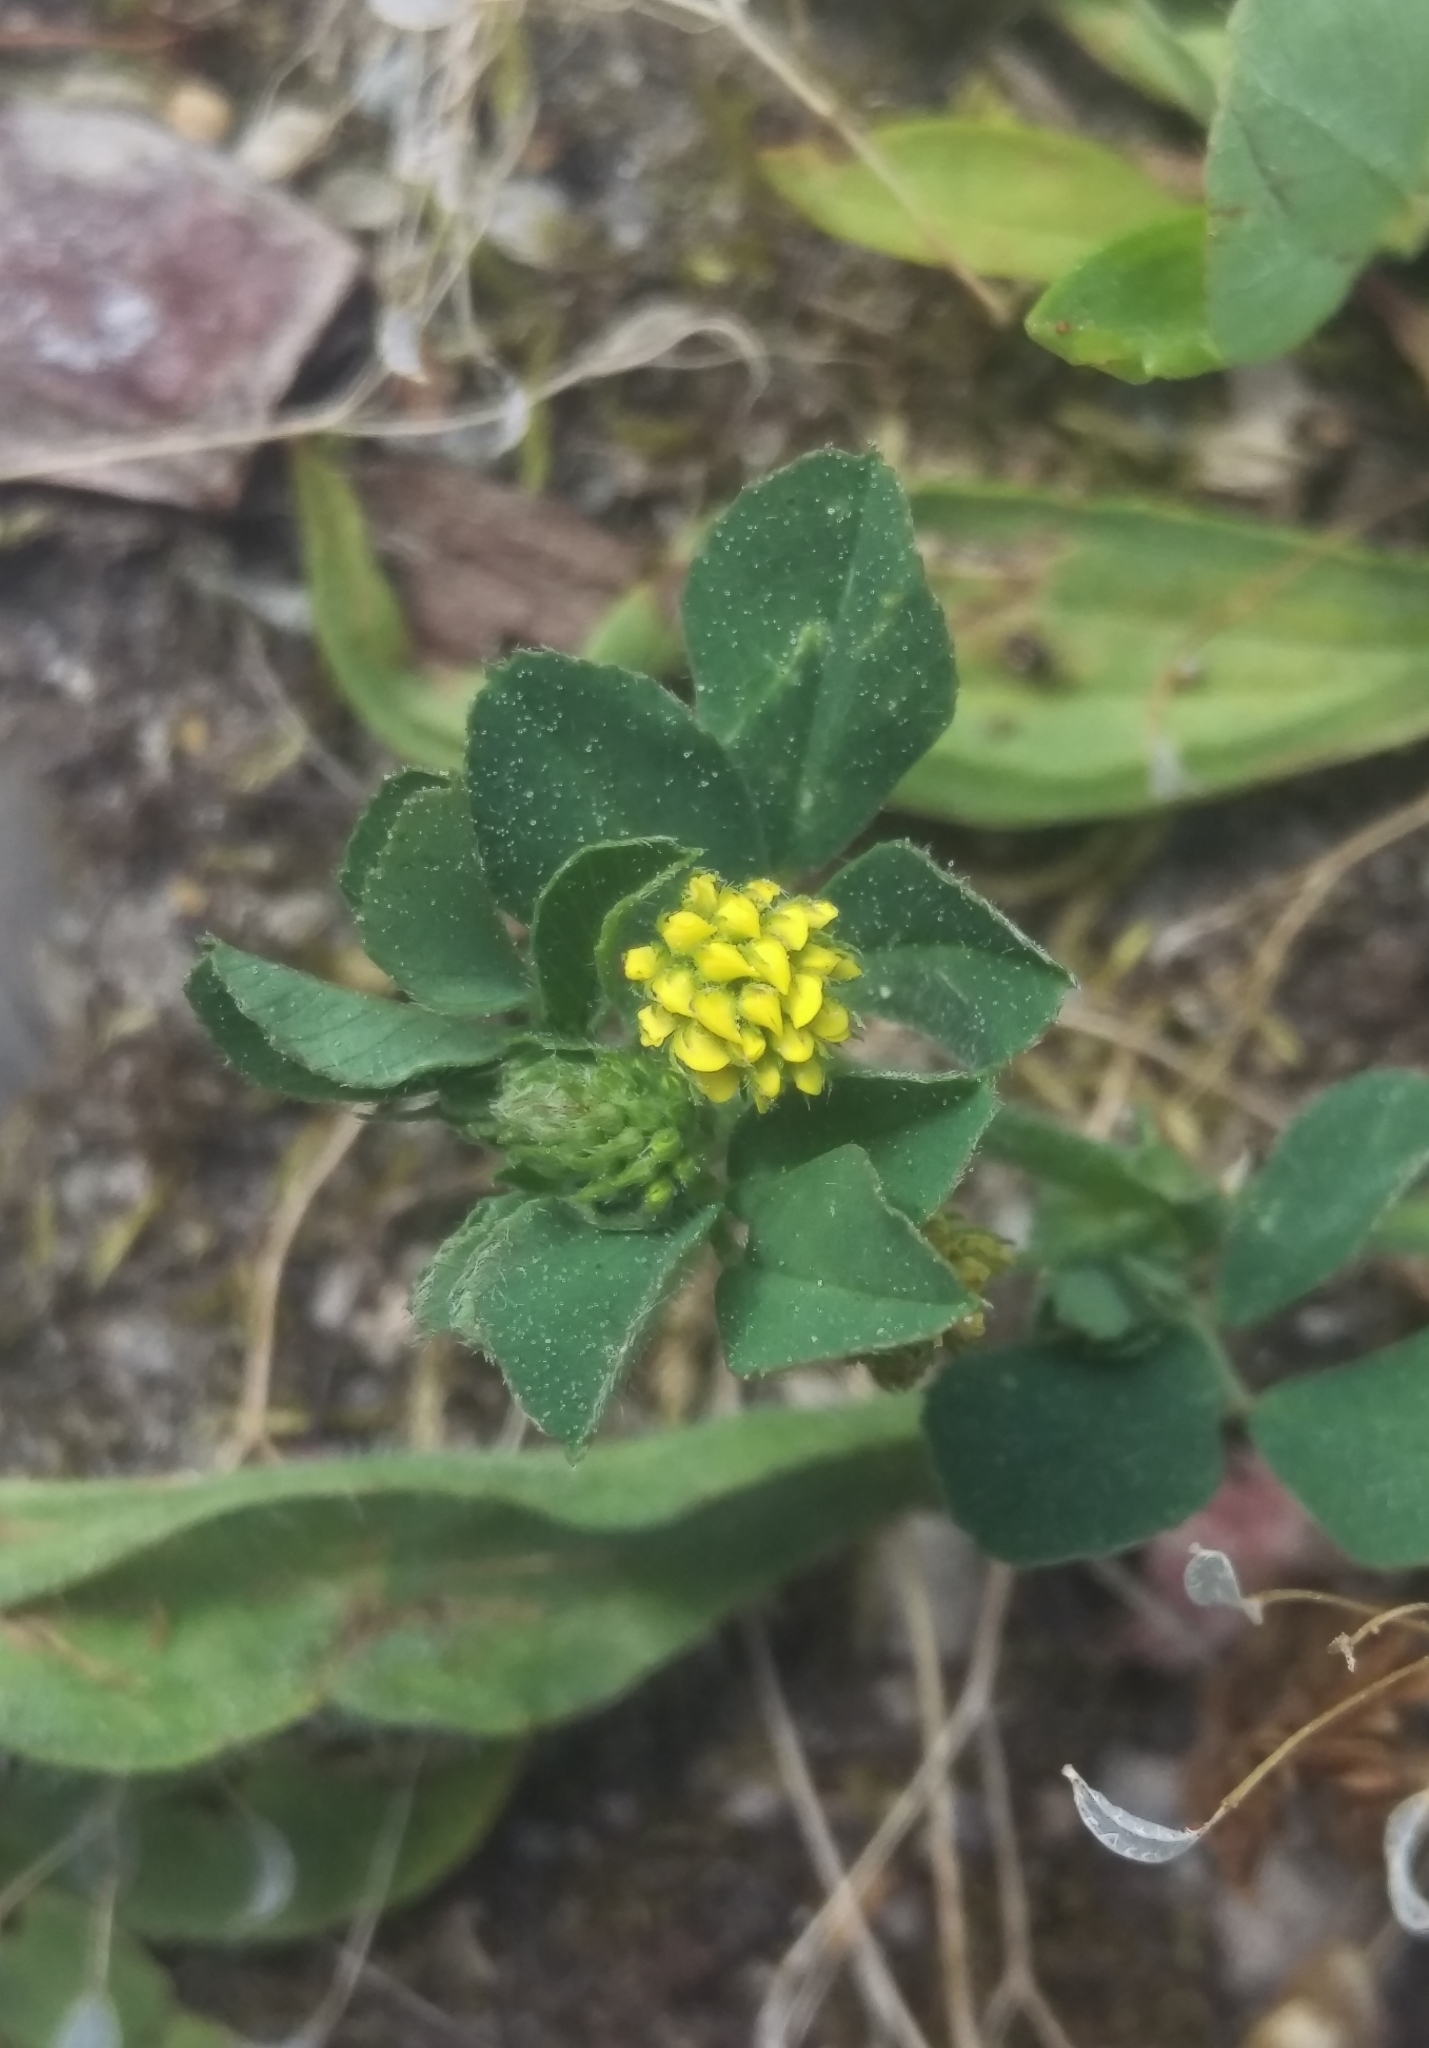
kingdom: Plantae
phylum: Tracheophyta
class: Magnoliopsida
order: Fabales
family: Fabaceae
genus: Medicago
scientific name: Medicago lupulina
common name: Black medick
